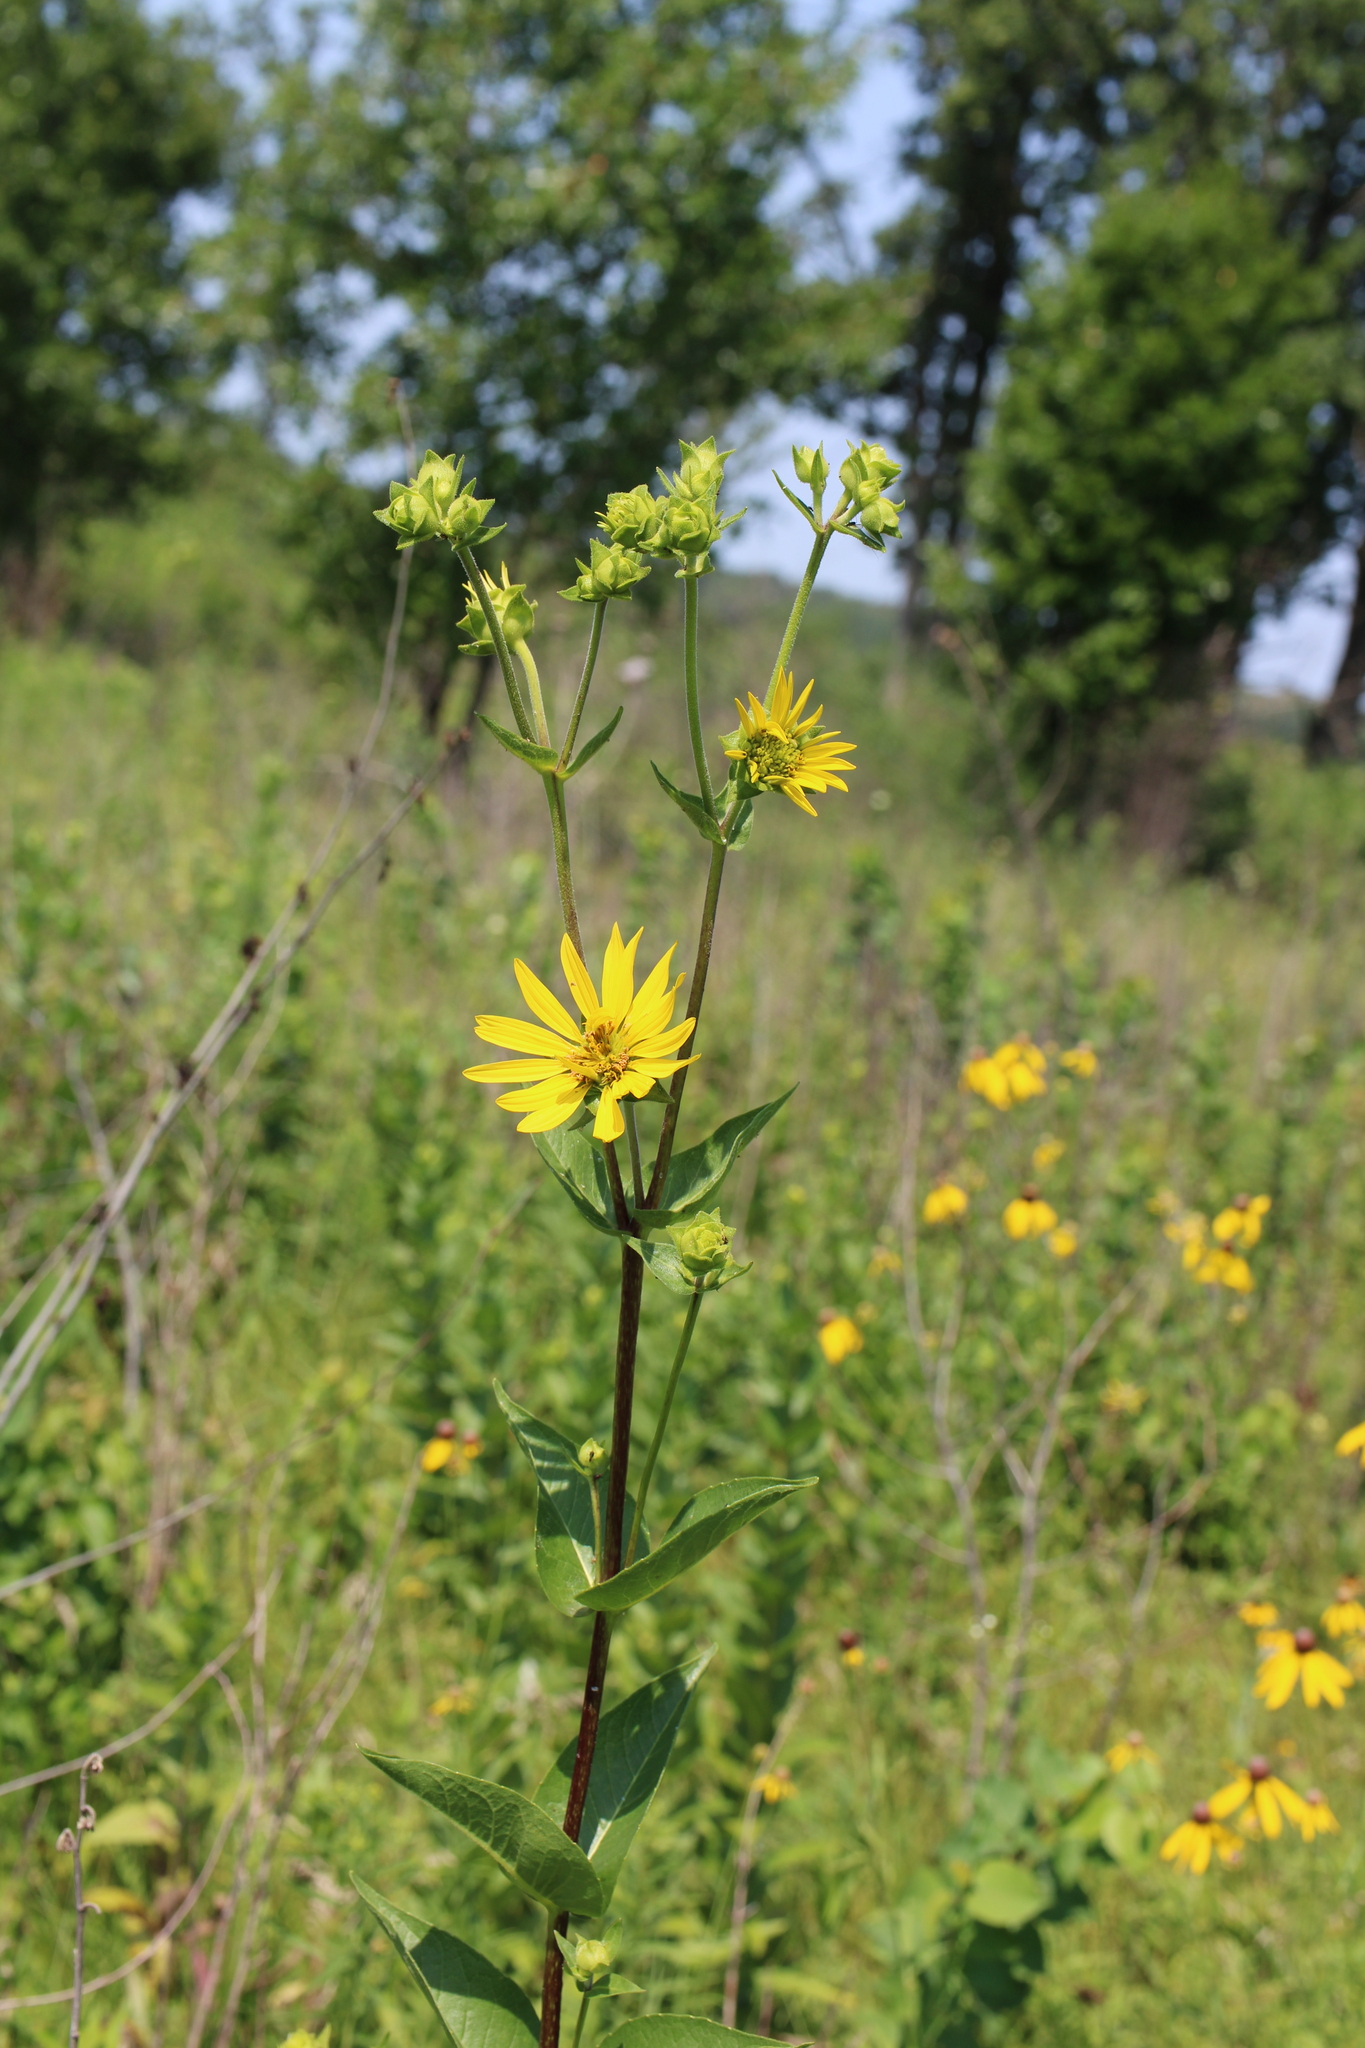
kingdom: Plantae
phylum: Tracheophyta
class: Magnoliopsida
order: Asterales
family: Asteraceae
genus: Silphium
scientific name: Silphium integrifolium
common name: Whole-leaf rosinweed
